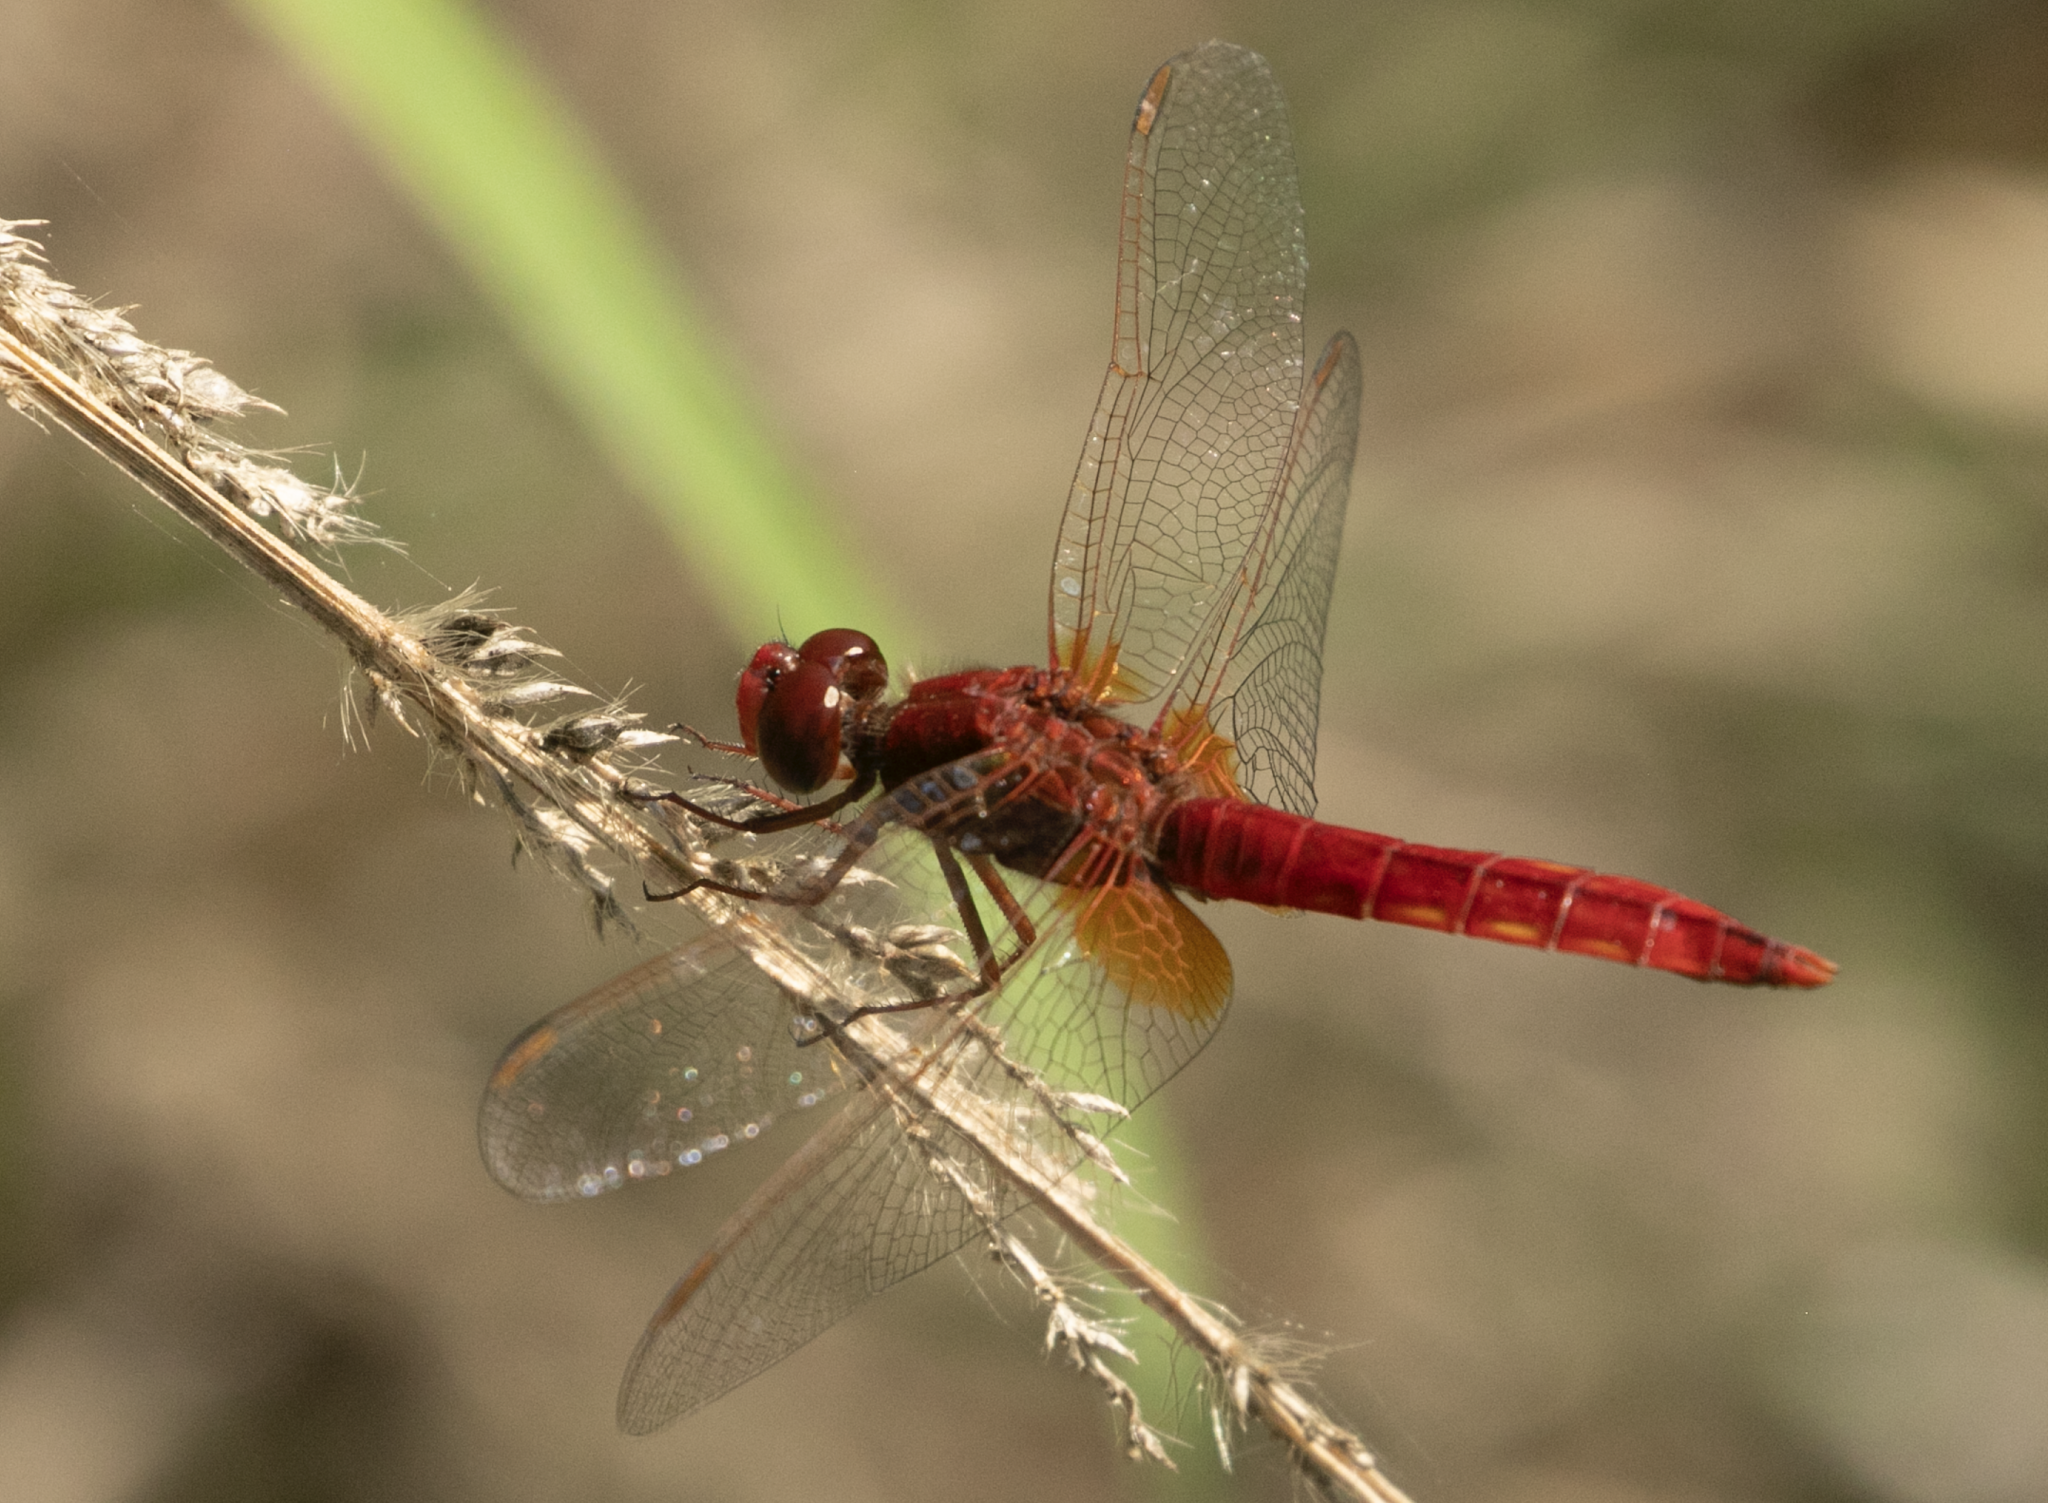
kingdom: Animalia
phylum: Arthropoda
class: Insecta
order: Odonata
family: Libellulidae
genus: Crocothemis
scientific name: Crocothemis erythraea
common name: Scarlet dragonfly
